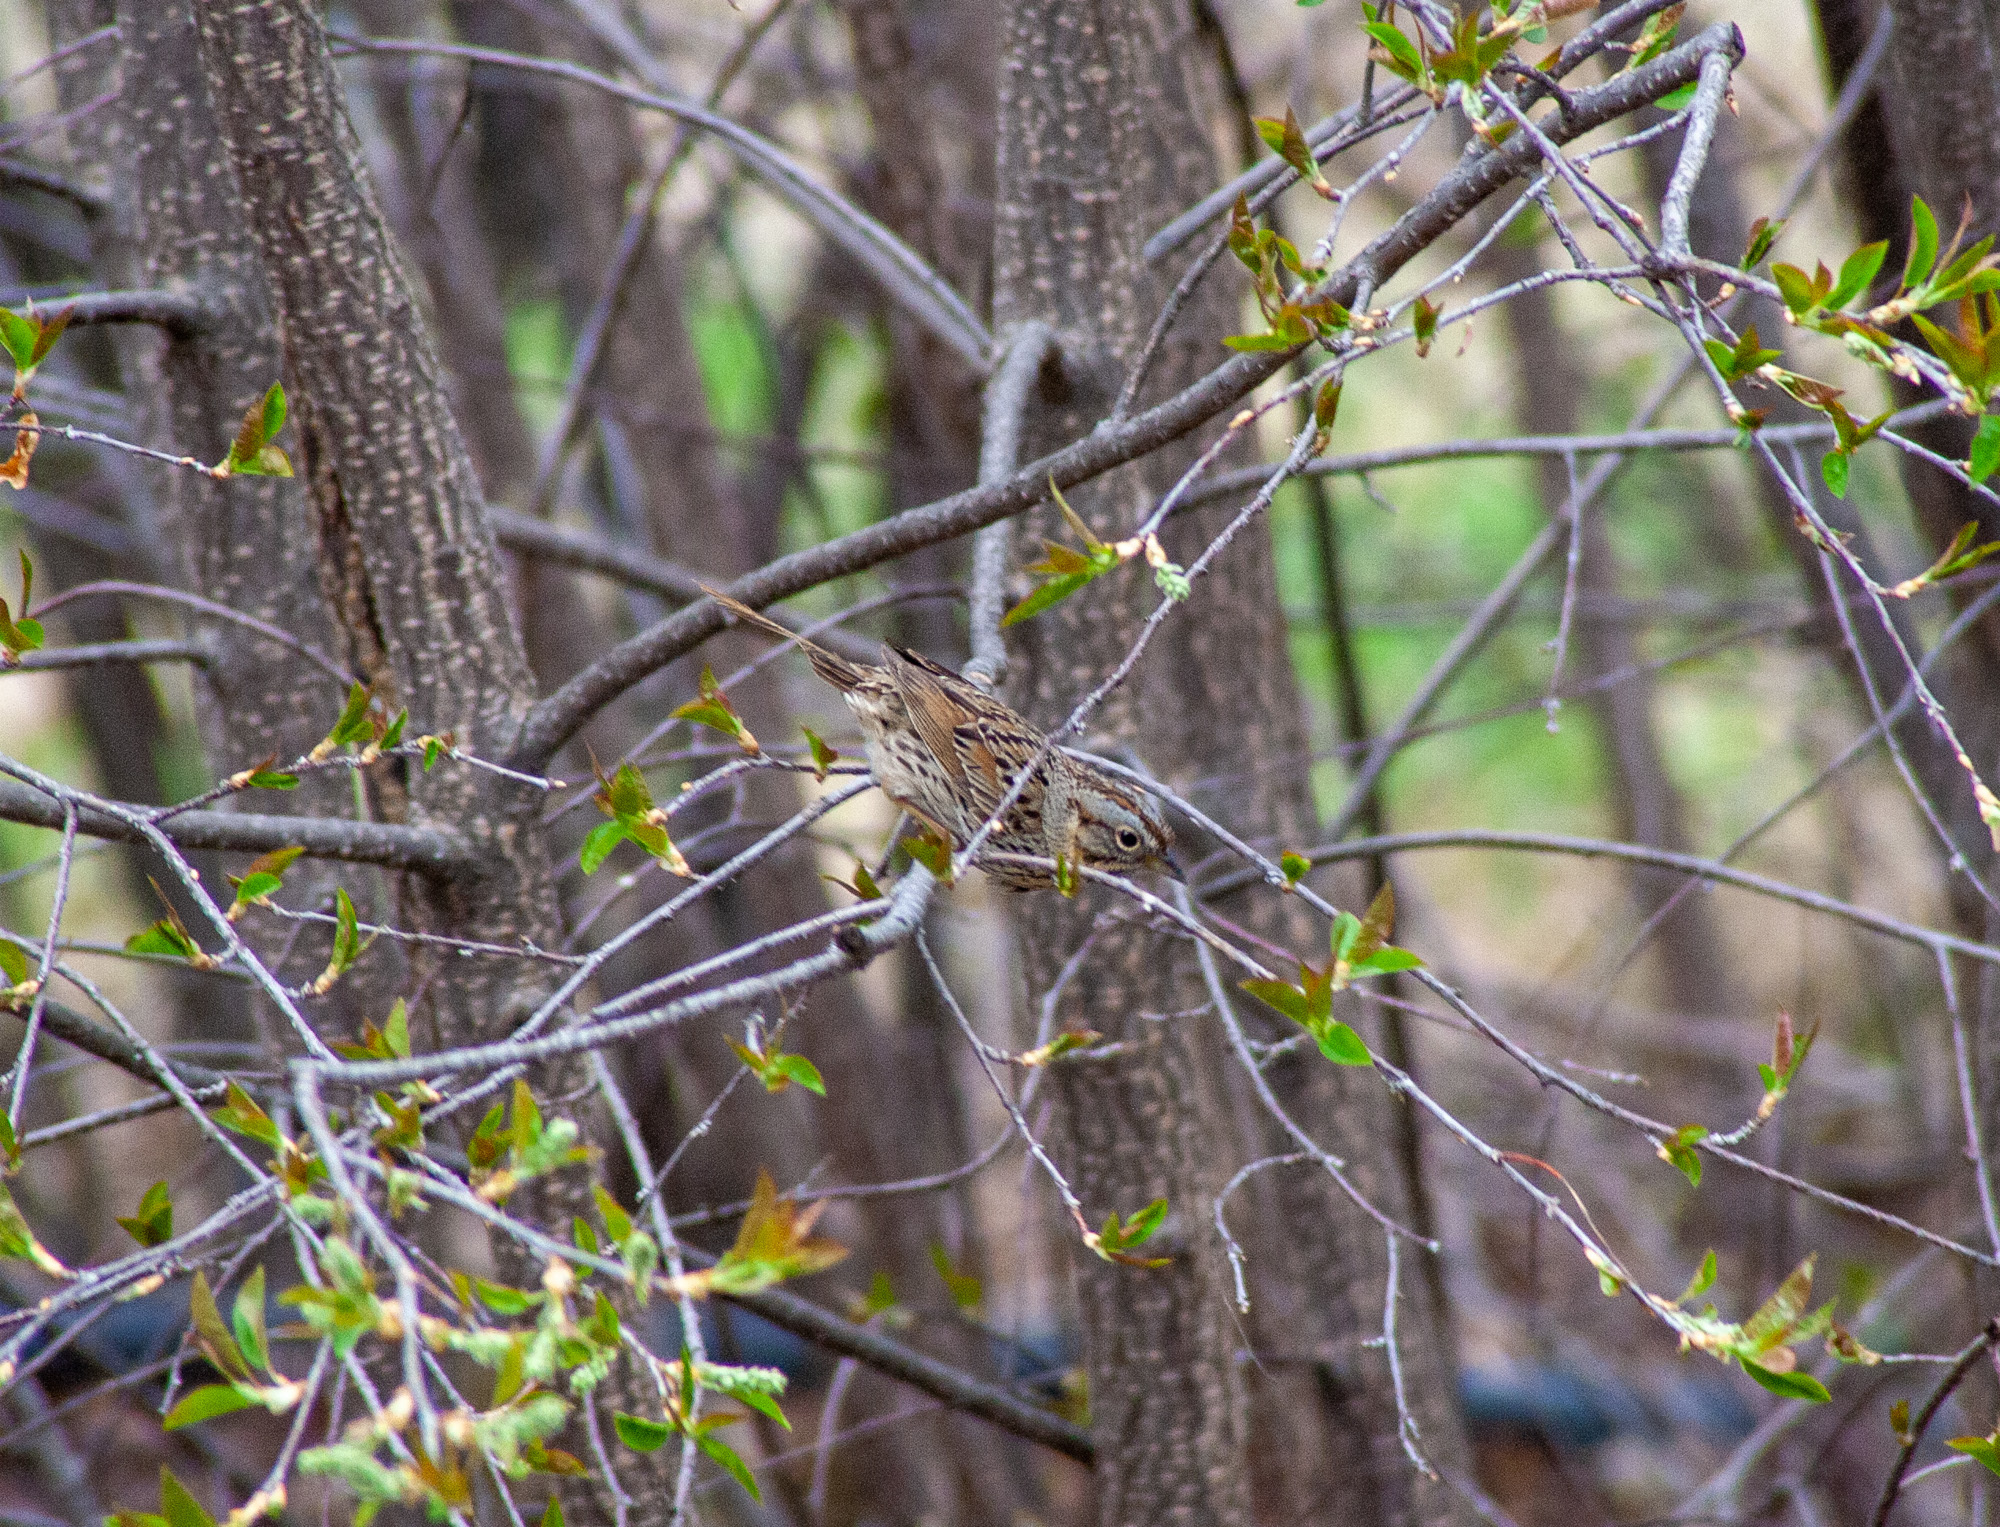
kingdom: Animalia
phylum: Chordata
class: Aves
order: Passeriformes
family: Passerellidae
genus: Melospiza
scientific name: Melospiza lincolnii
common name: Lincoln's sparrow
